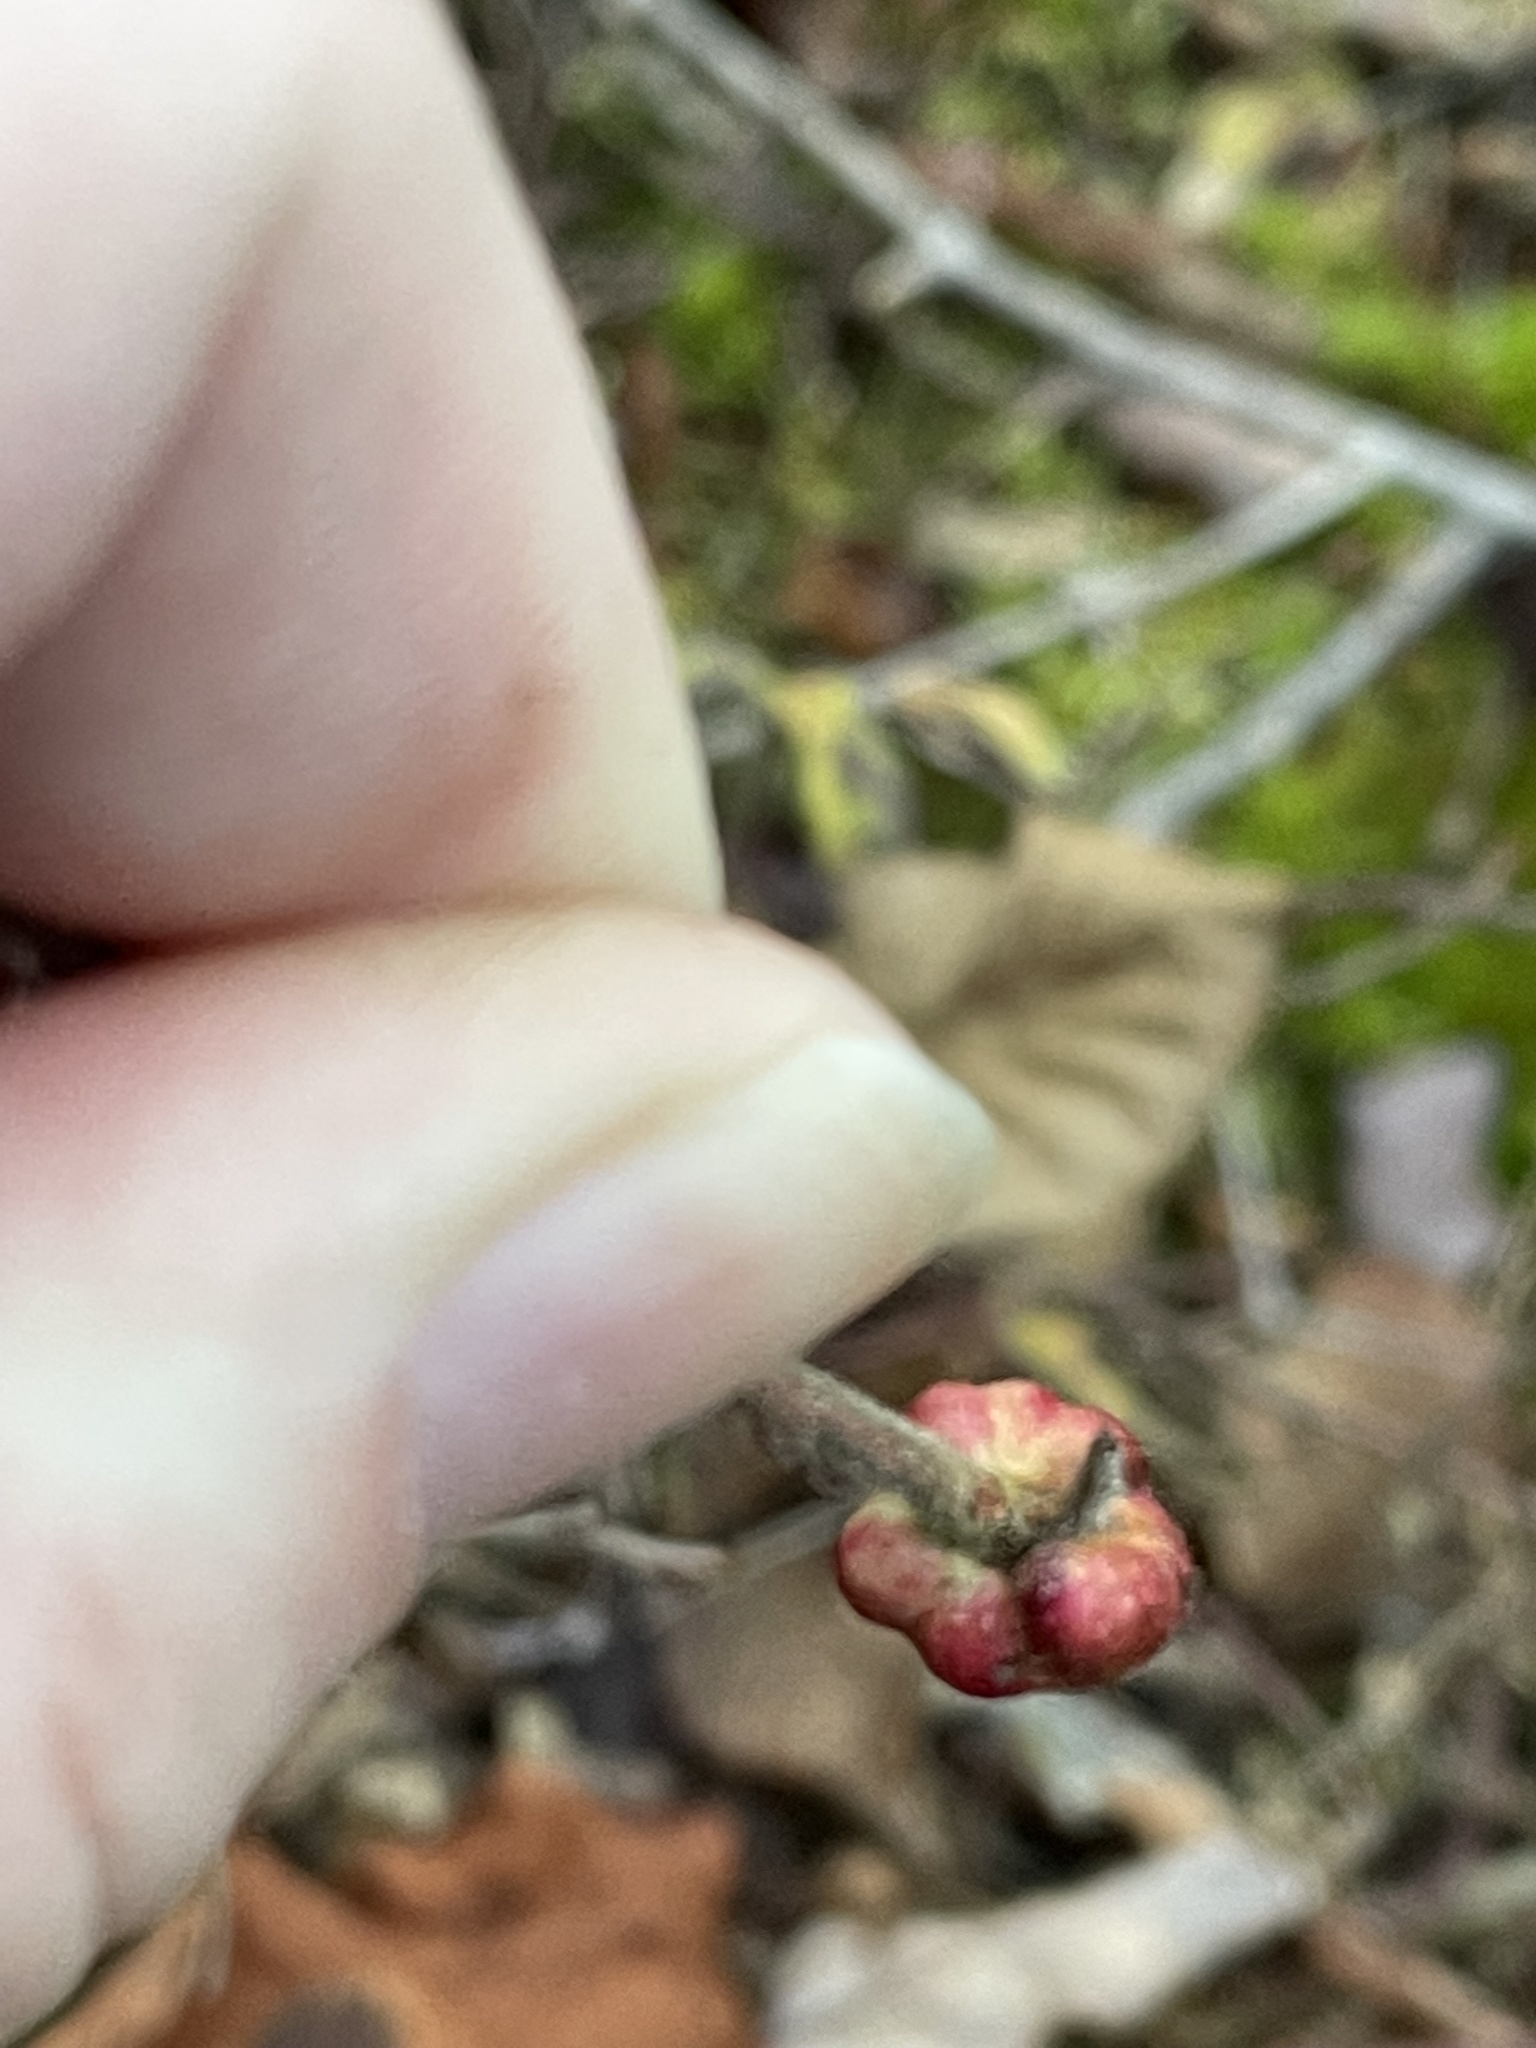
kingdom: Animalia
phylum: Arthropoda
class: Insecta
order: Hymenoptera
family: Pteromalidae
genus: Hemadas
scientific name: Hemadas nubilipennis
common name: Blueberry stem gall wasp
